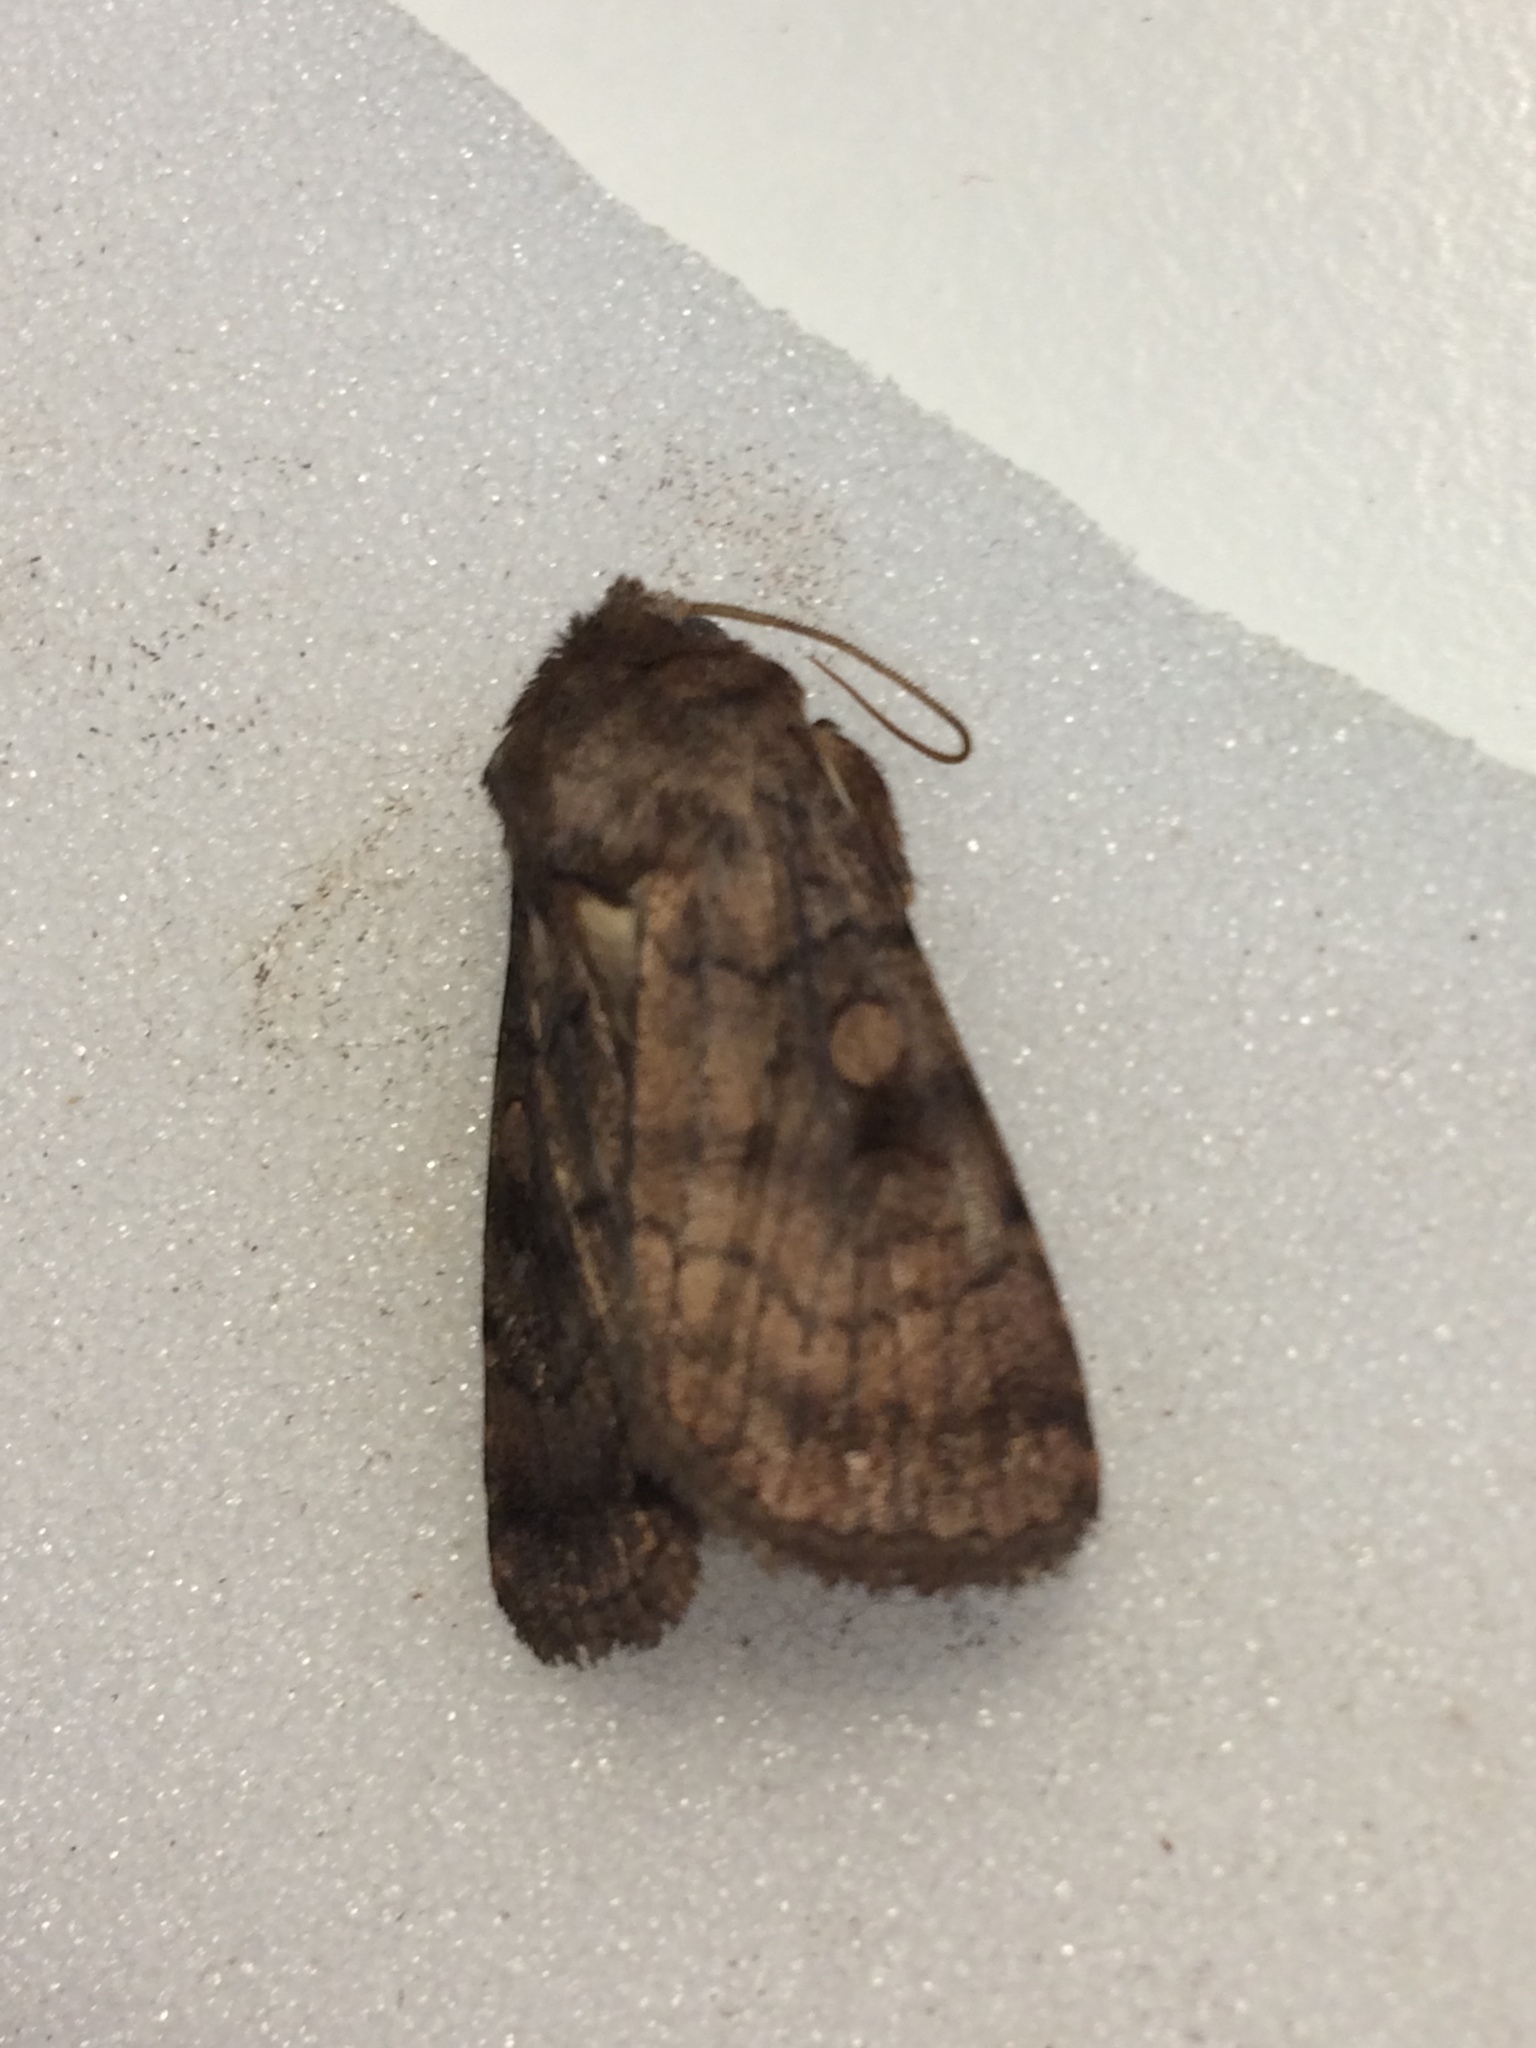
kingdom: Animalia
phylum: Arthropoda
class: Insecta
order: Lepidoptera
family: Noctuidae
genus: Xestia
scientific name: Xestia sexstrigata
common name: Six-striped rustic
